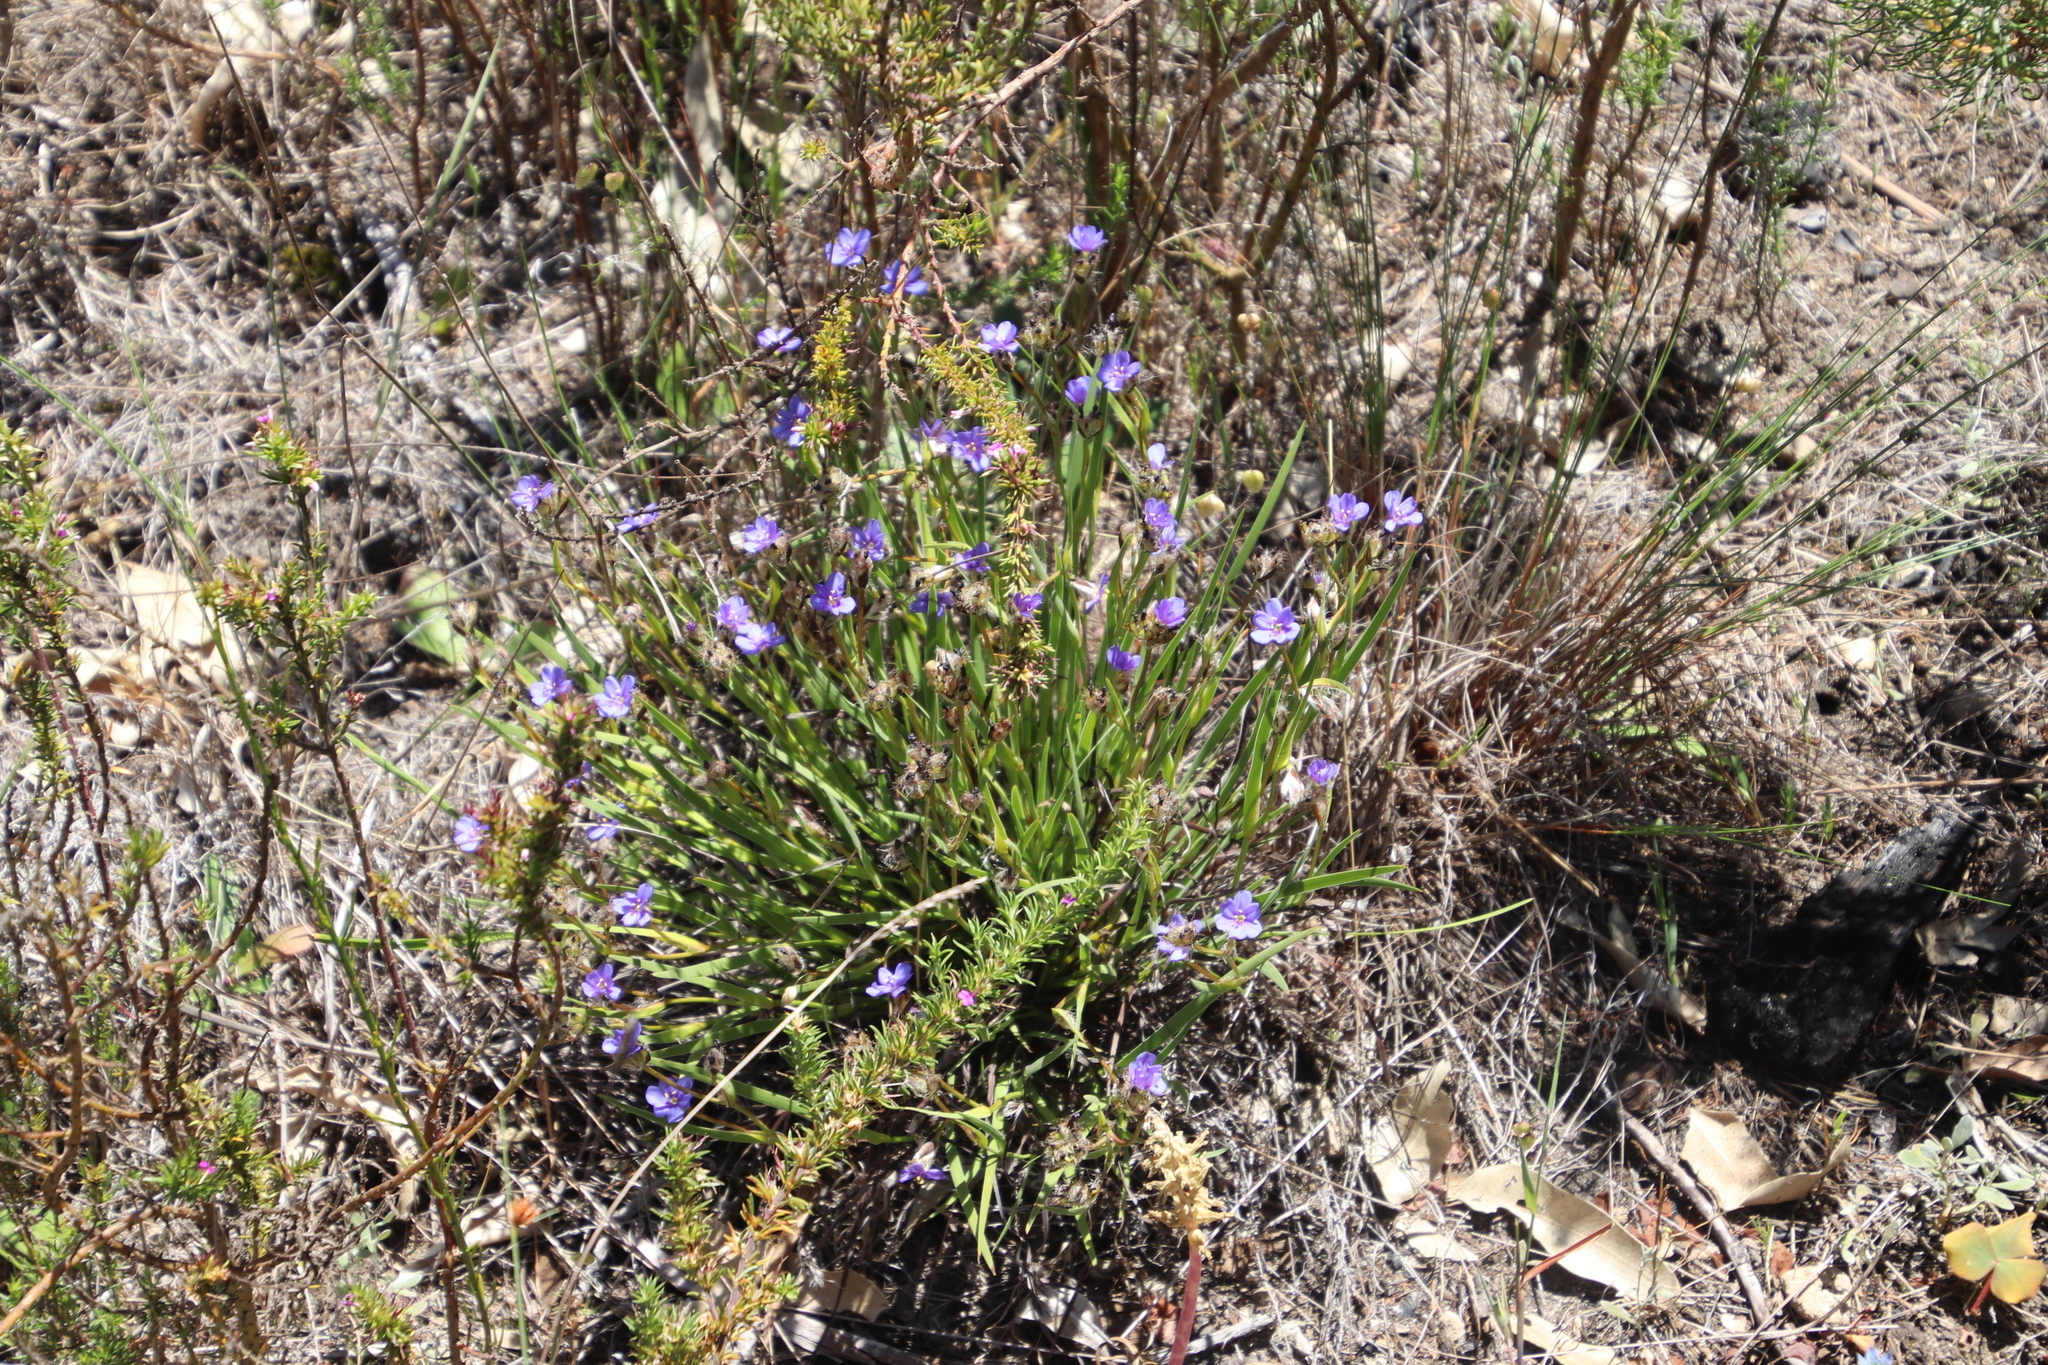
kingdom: Plantae
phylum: Tracheophyta
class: Liliopsida
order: Asparagales
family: Iridaceae
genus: Aristea
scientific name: Aristea africana
